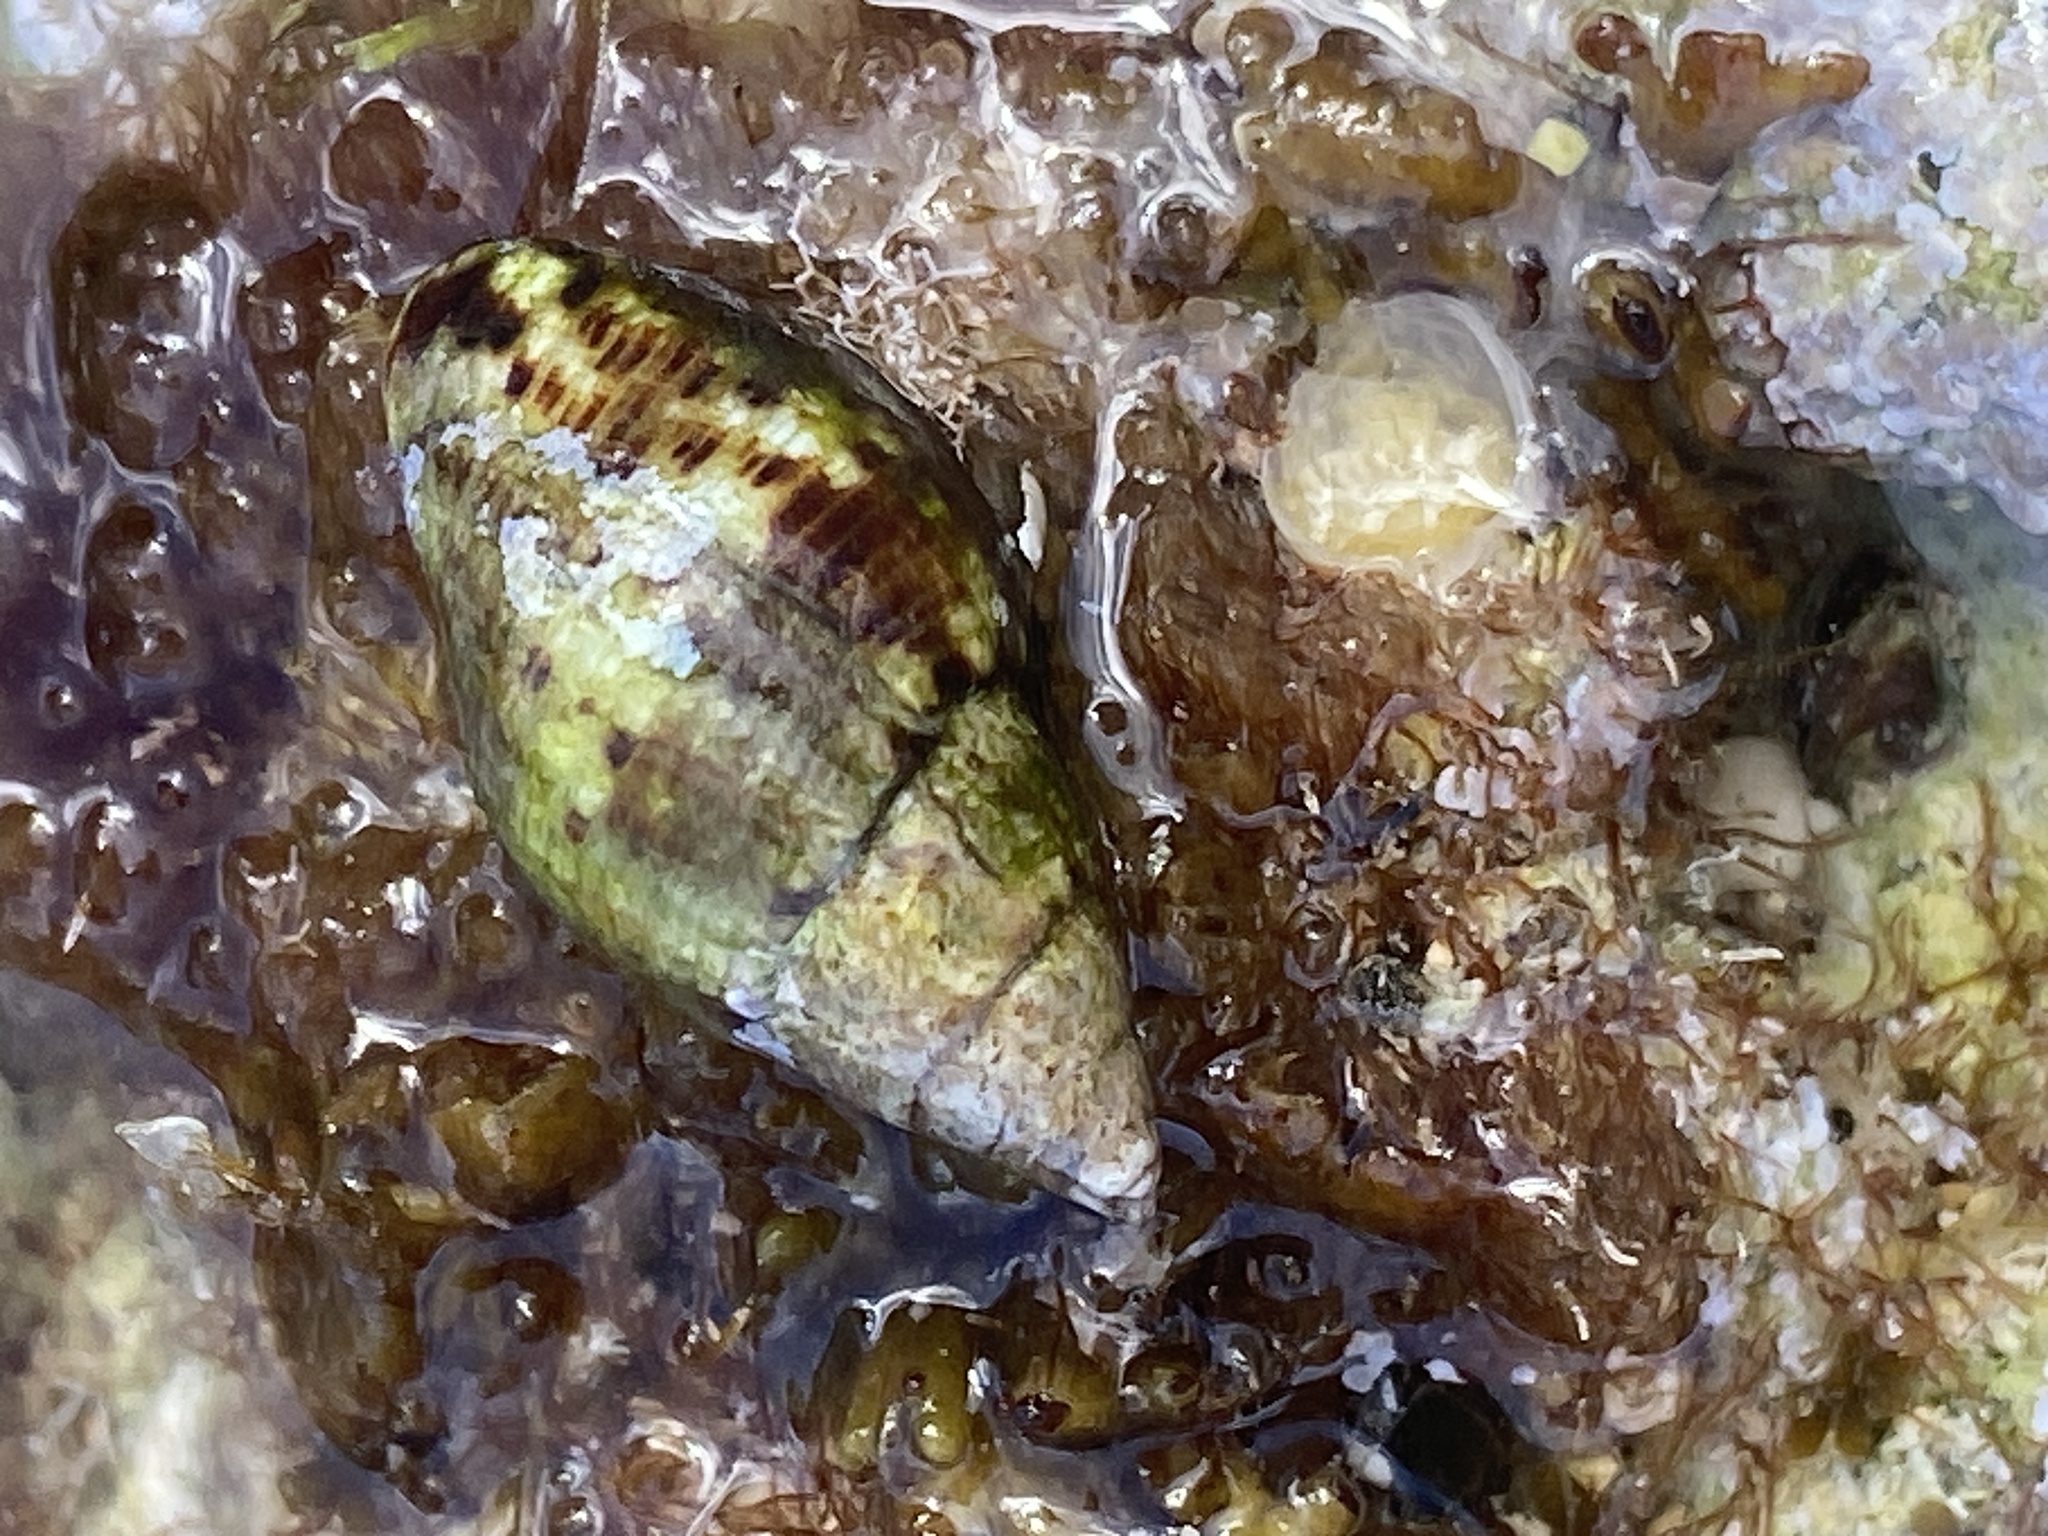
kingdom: Animalia
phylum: Mollusca
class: Gastropoda
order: Neogastropoda
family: Pisaniidae
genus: Pisania
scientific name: Pisania striata
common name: Spotted pisania
